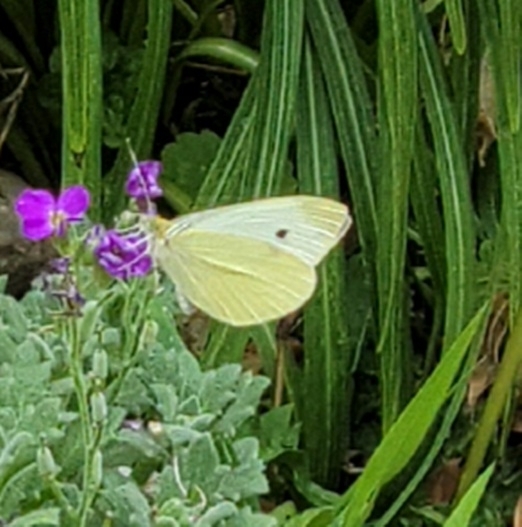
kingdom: Animalia
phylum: Arthropoda
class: Insecta
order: Lepidoptera
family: Pieridae
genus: Pieris
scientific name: Pieris rapae
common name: Small white
